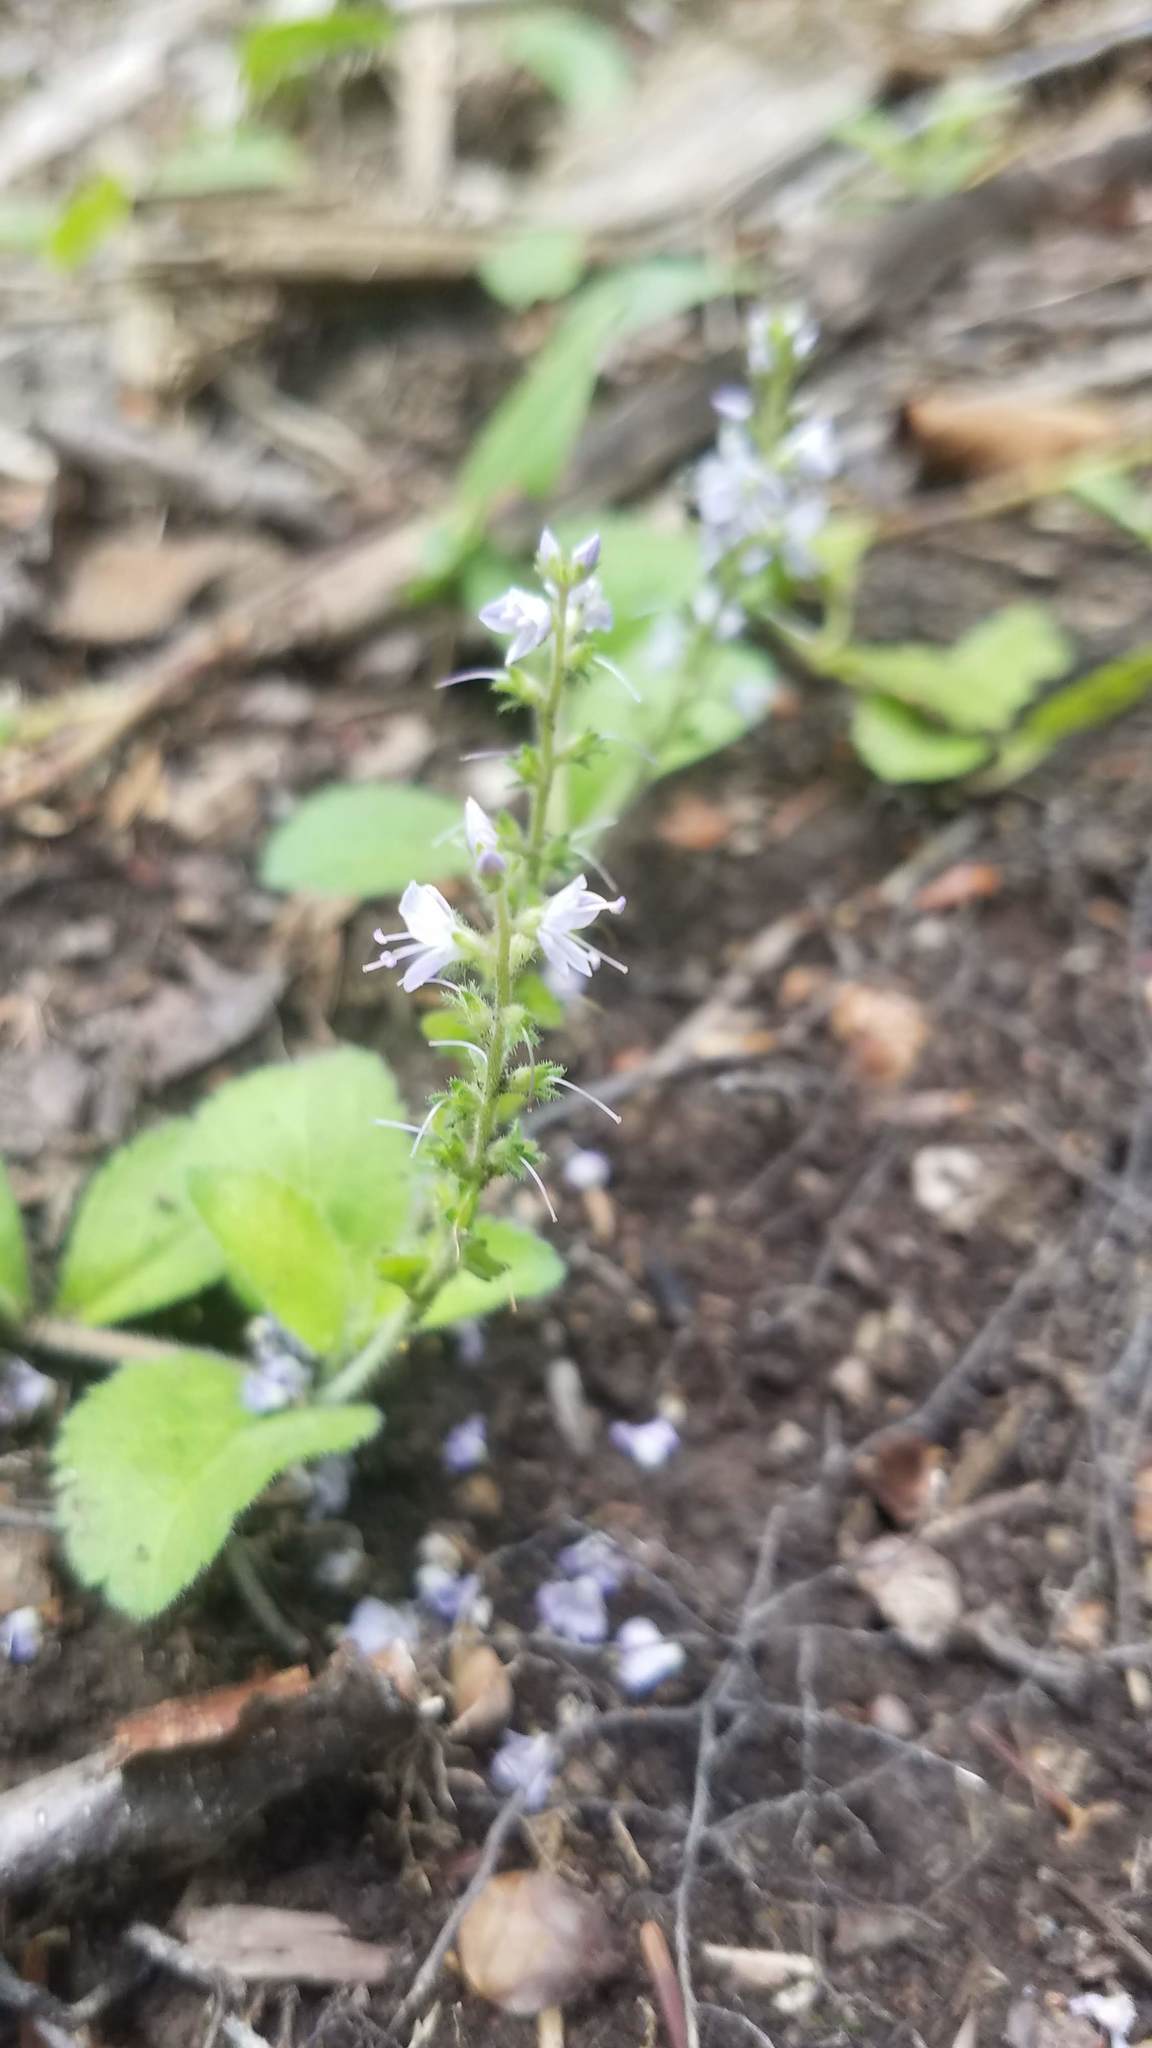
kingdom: Plantae
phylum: Tracheophyta
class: Magnoliopsida
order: Lamiales
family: Plantaginaceae
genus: Veronica
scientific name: Veronica officinalis
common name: Common speedwell
